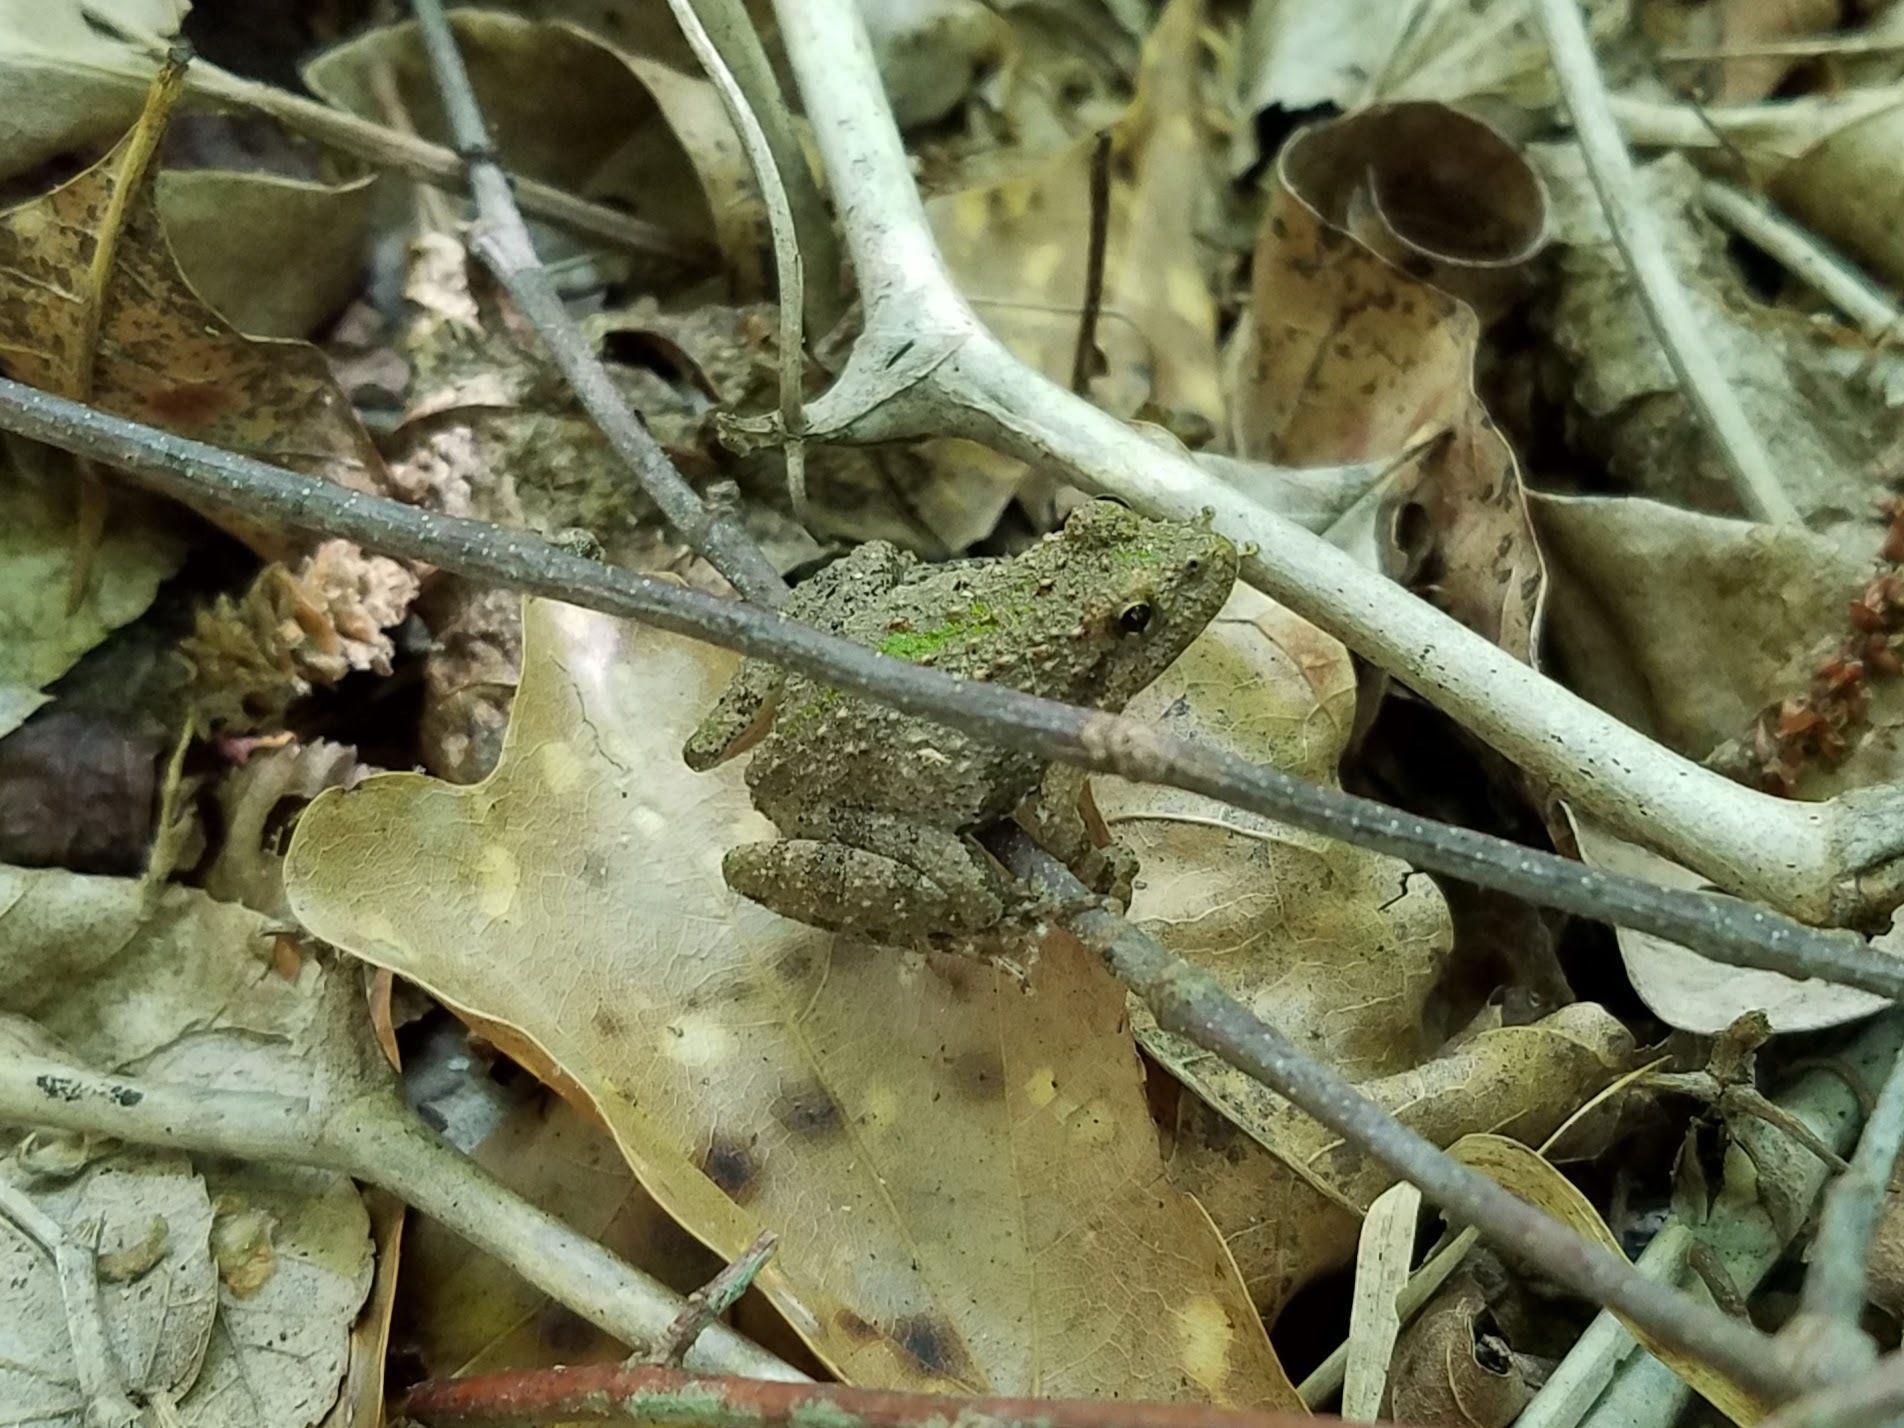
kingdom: Animalia
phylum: Chordata
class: Amphibia
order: Anura
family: Hylidae
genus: Acris
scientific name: Acris crepitans
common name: Northern cricket frog
